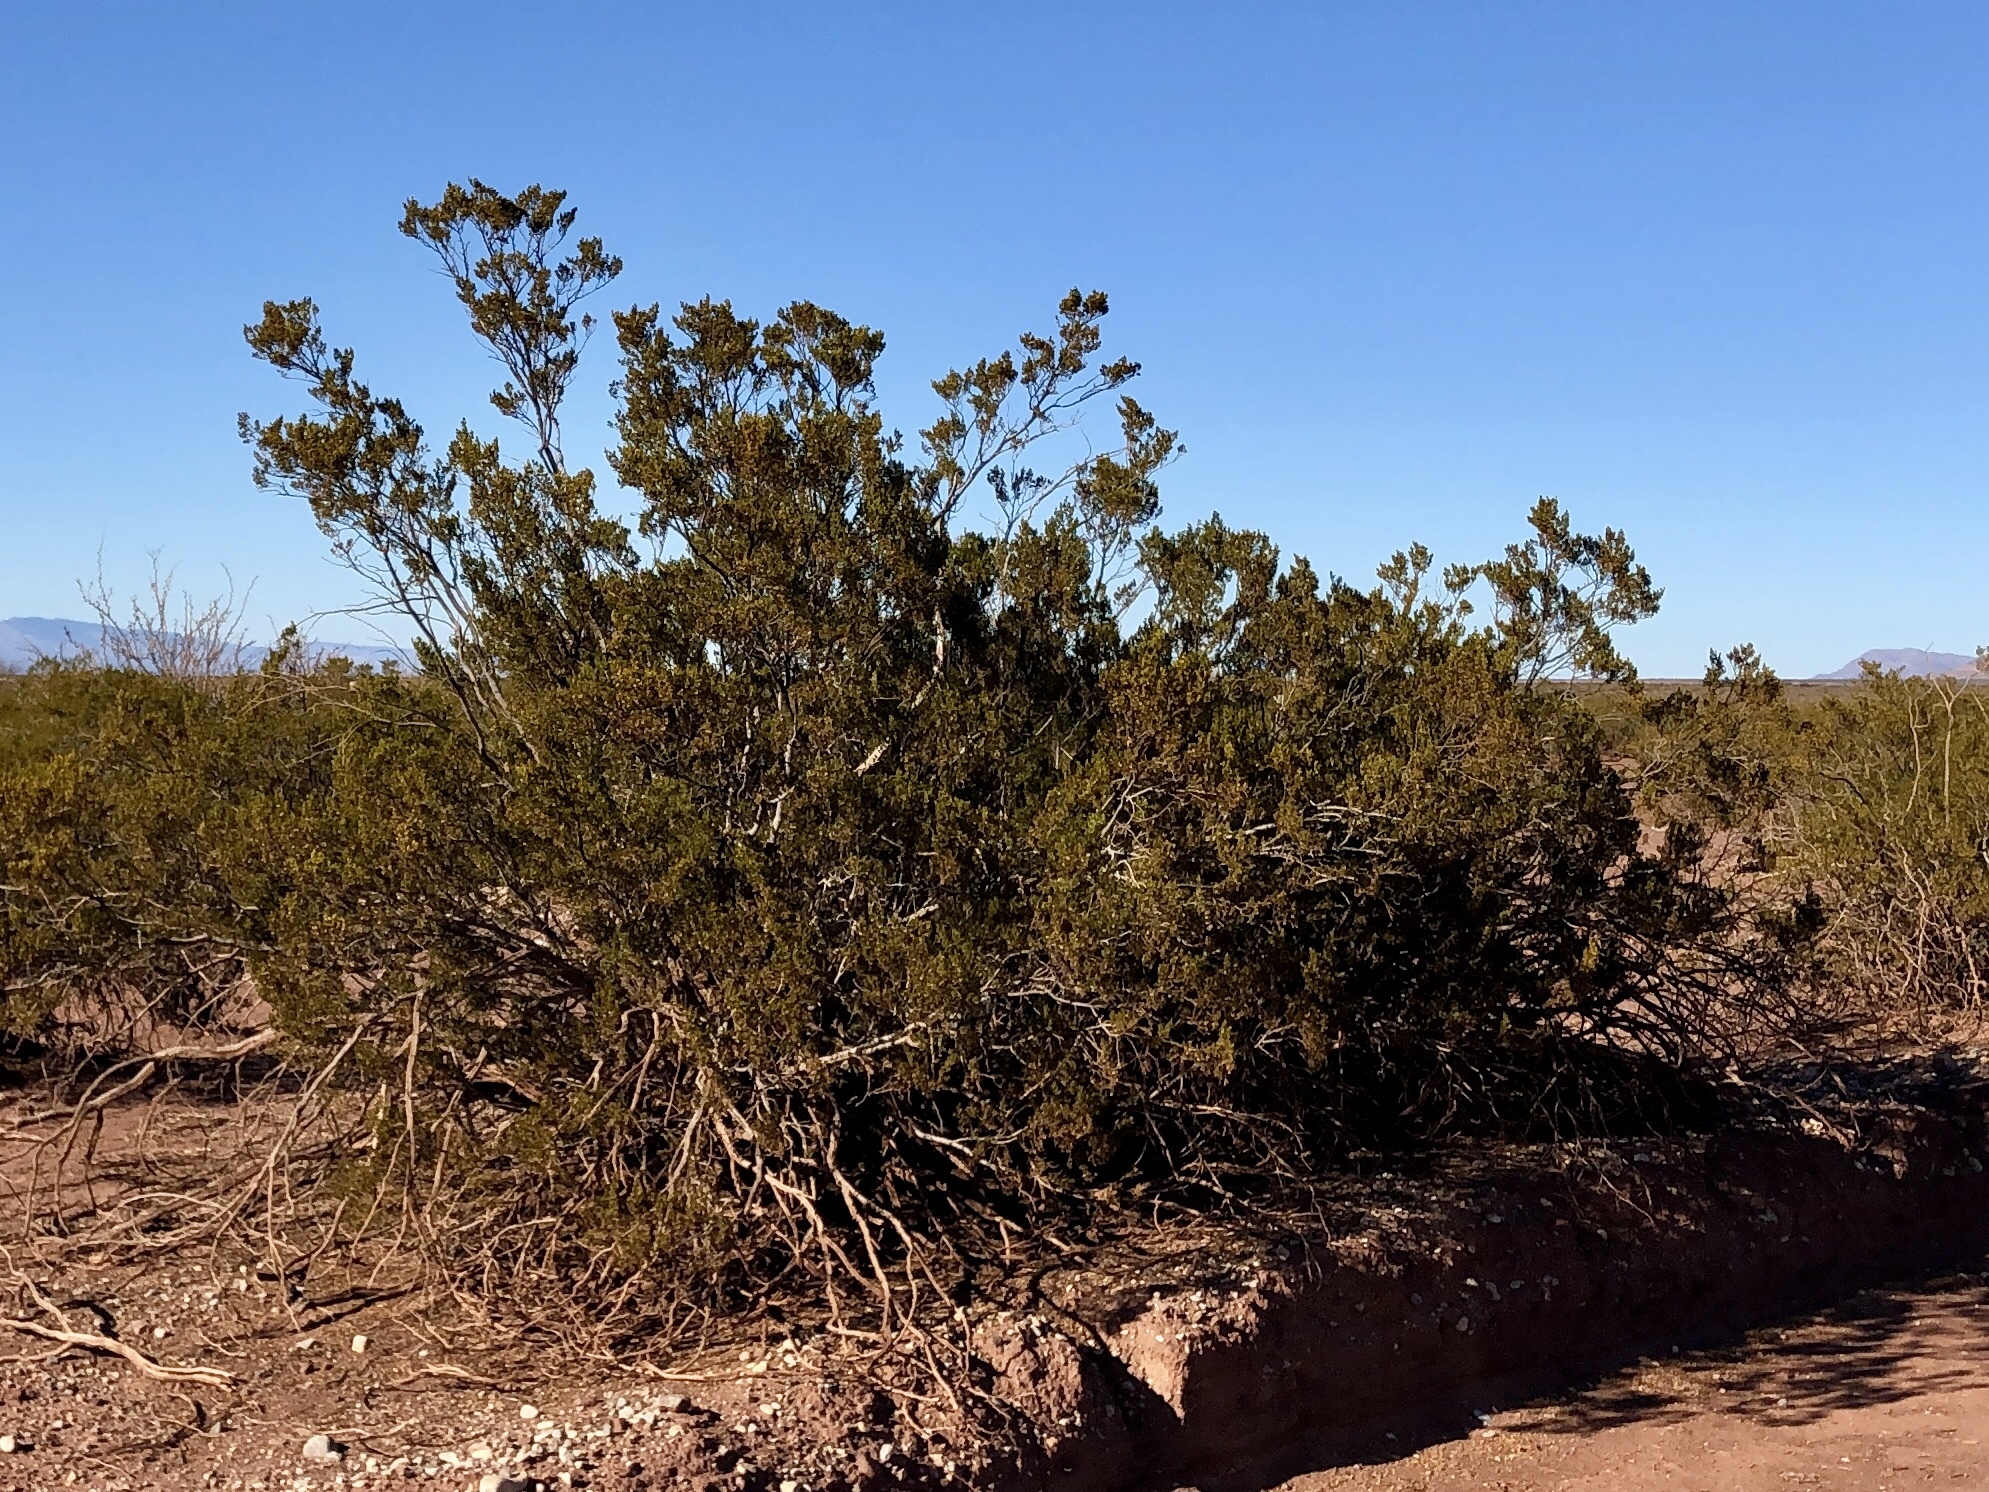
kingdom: Plantae
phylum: Tracheophyta
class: Magnoliopsida
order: Zygophyllales
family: Zygophyllaceae
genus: Larrea
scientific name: Larrea tridentata
